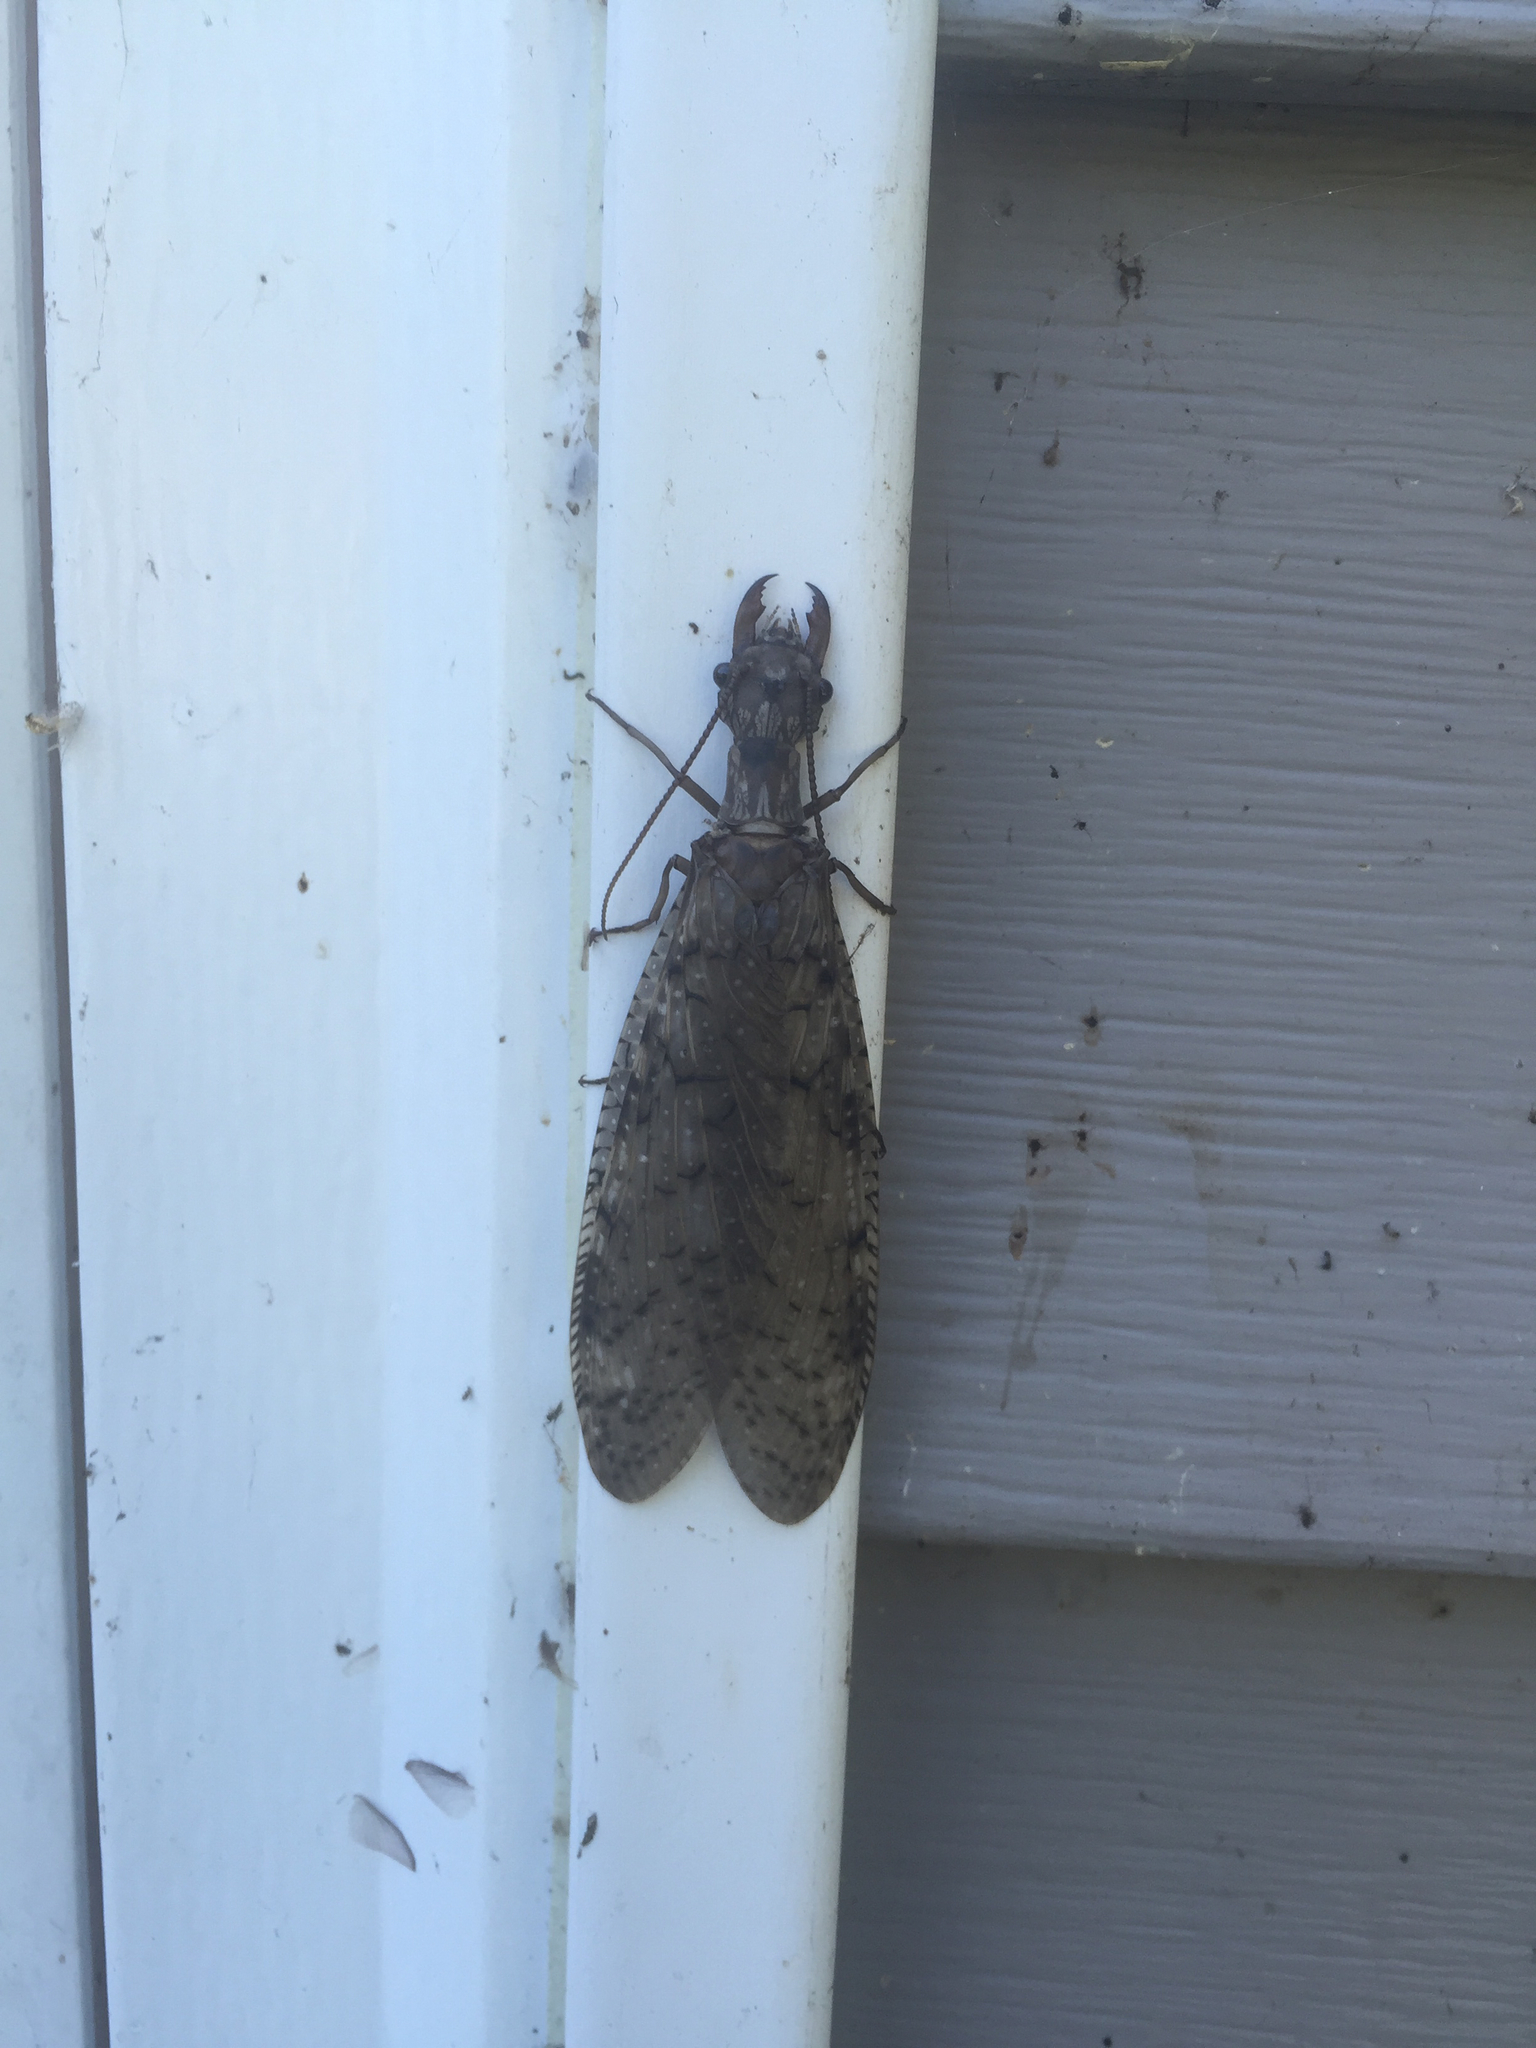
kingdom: Animalia
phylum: Arthropoda
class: Insecta
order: Megaloptera
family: Corydalidae
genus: Corydalus
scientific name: Corydalus cornutus
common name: Dobsonfly
